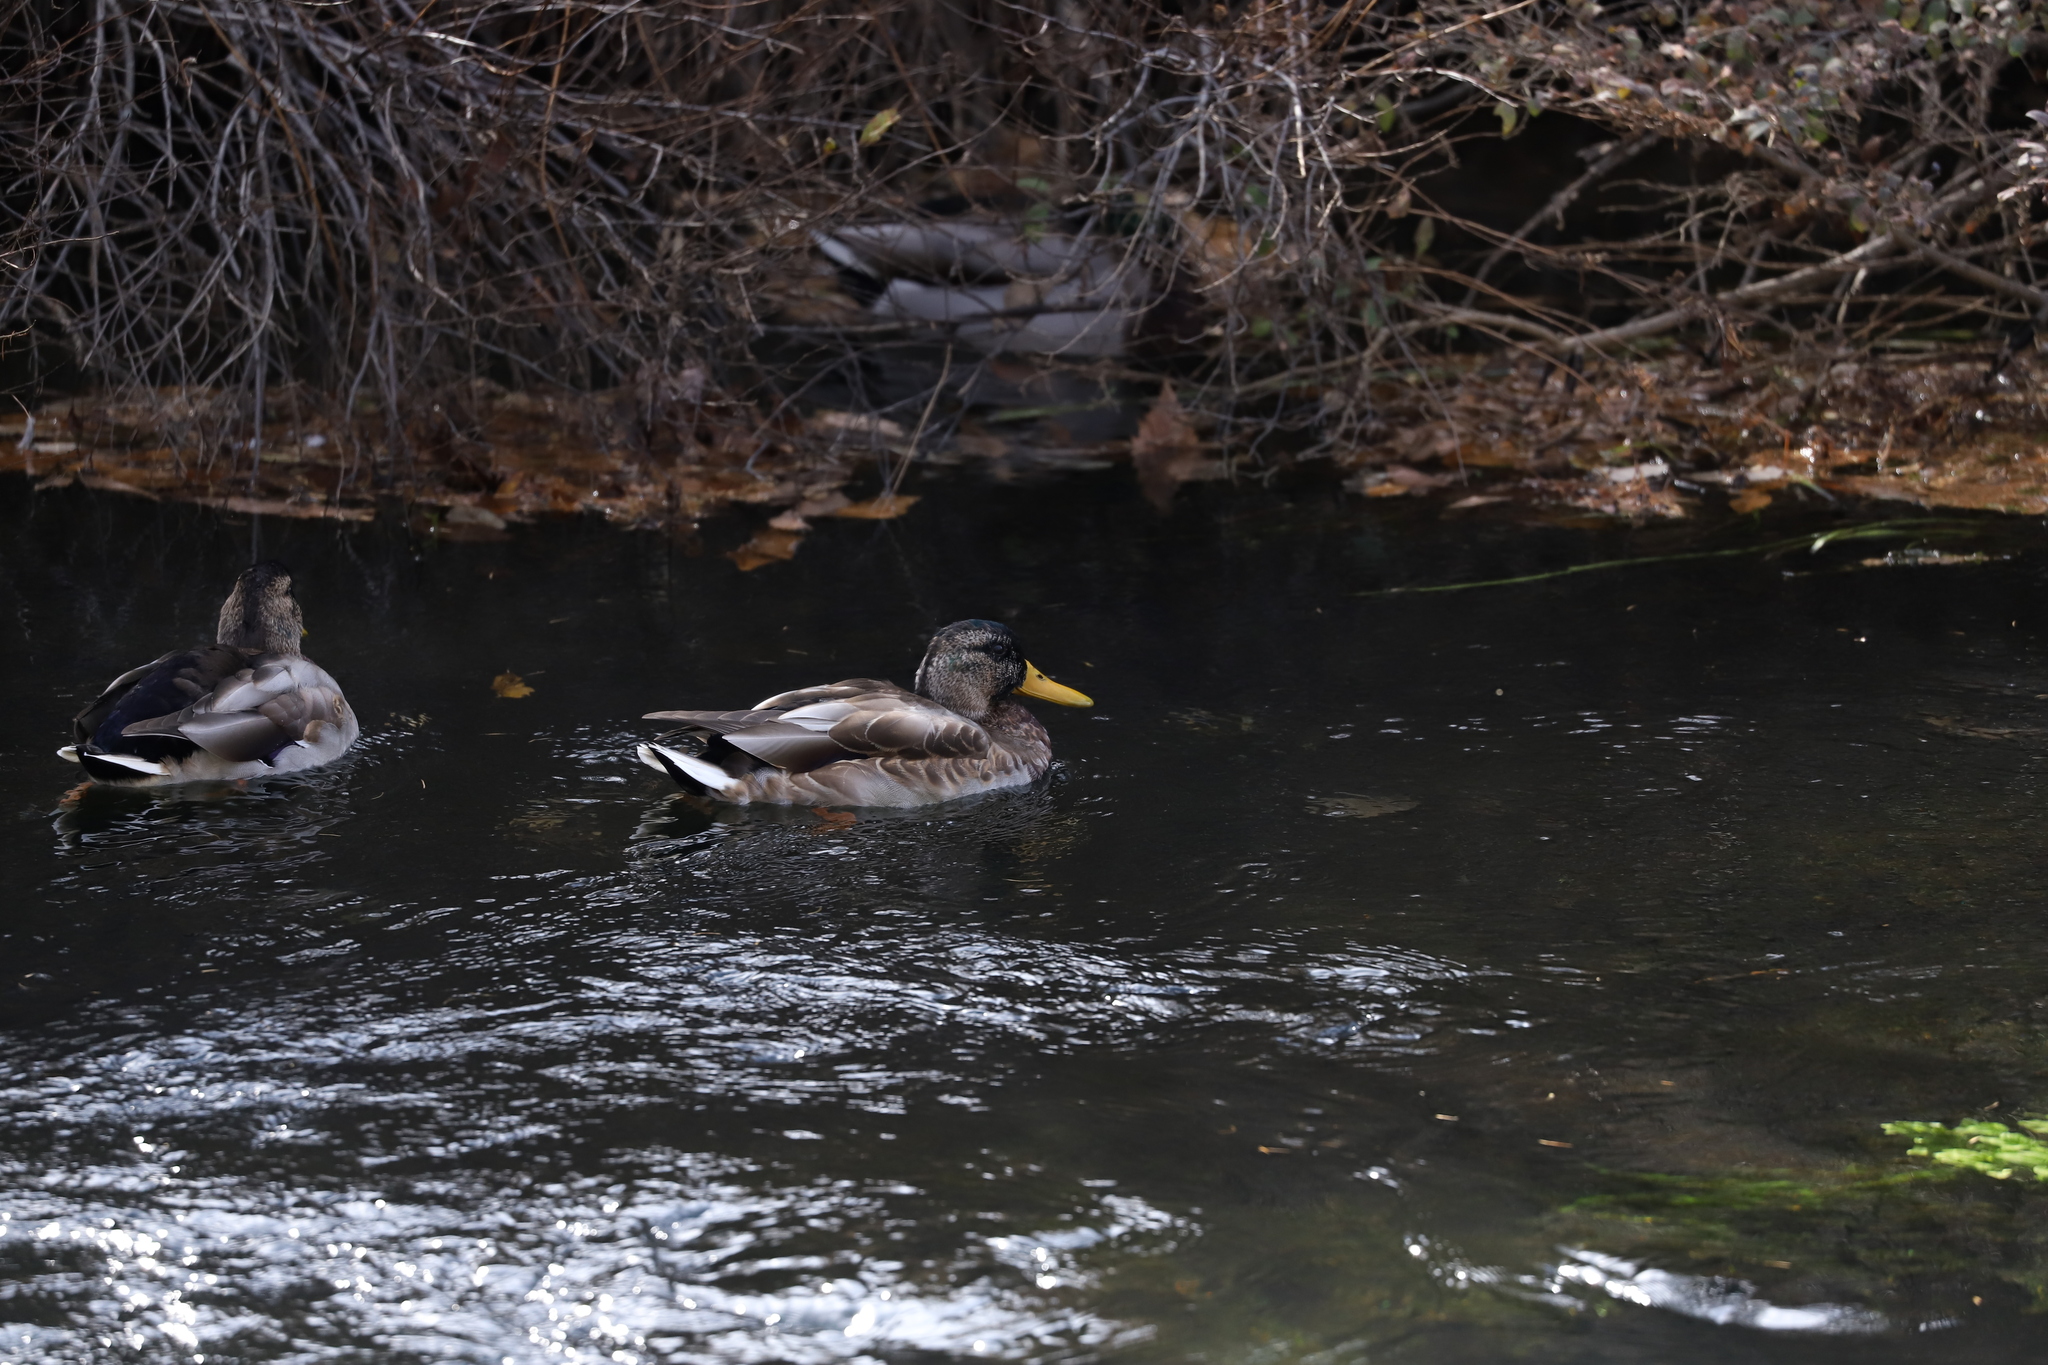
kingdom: Animalia
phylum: Chordata
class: Aves
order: Anseriformes
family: Anatidae
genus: Anas
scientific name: Anas platyrhynchos
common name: Mallard
